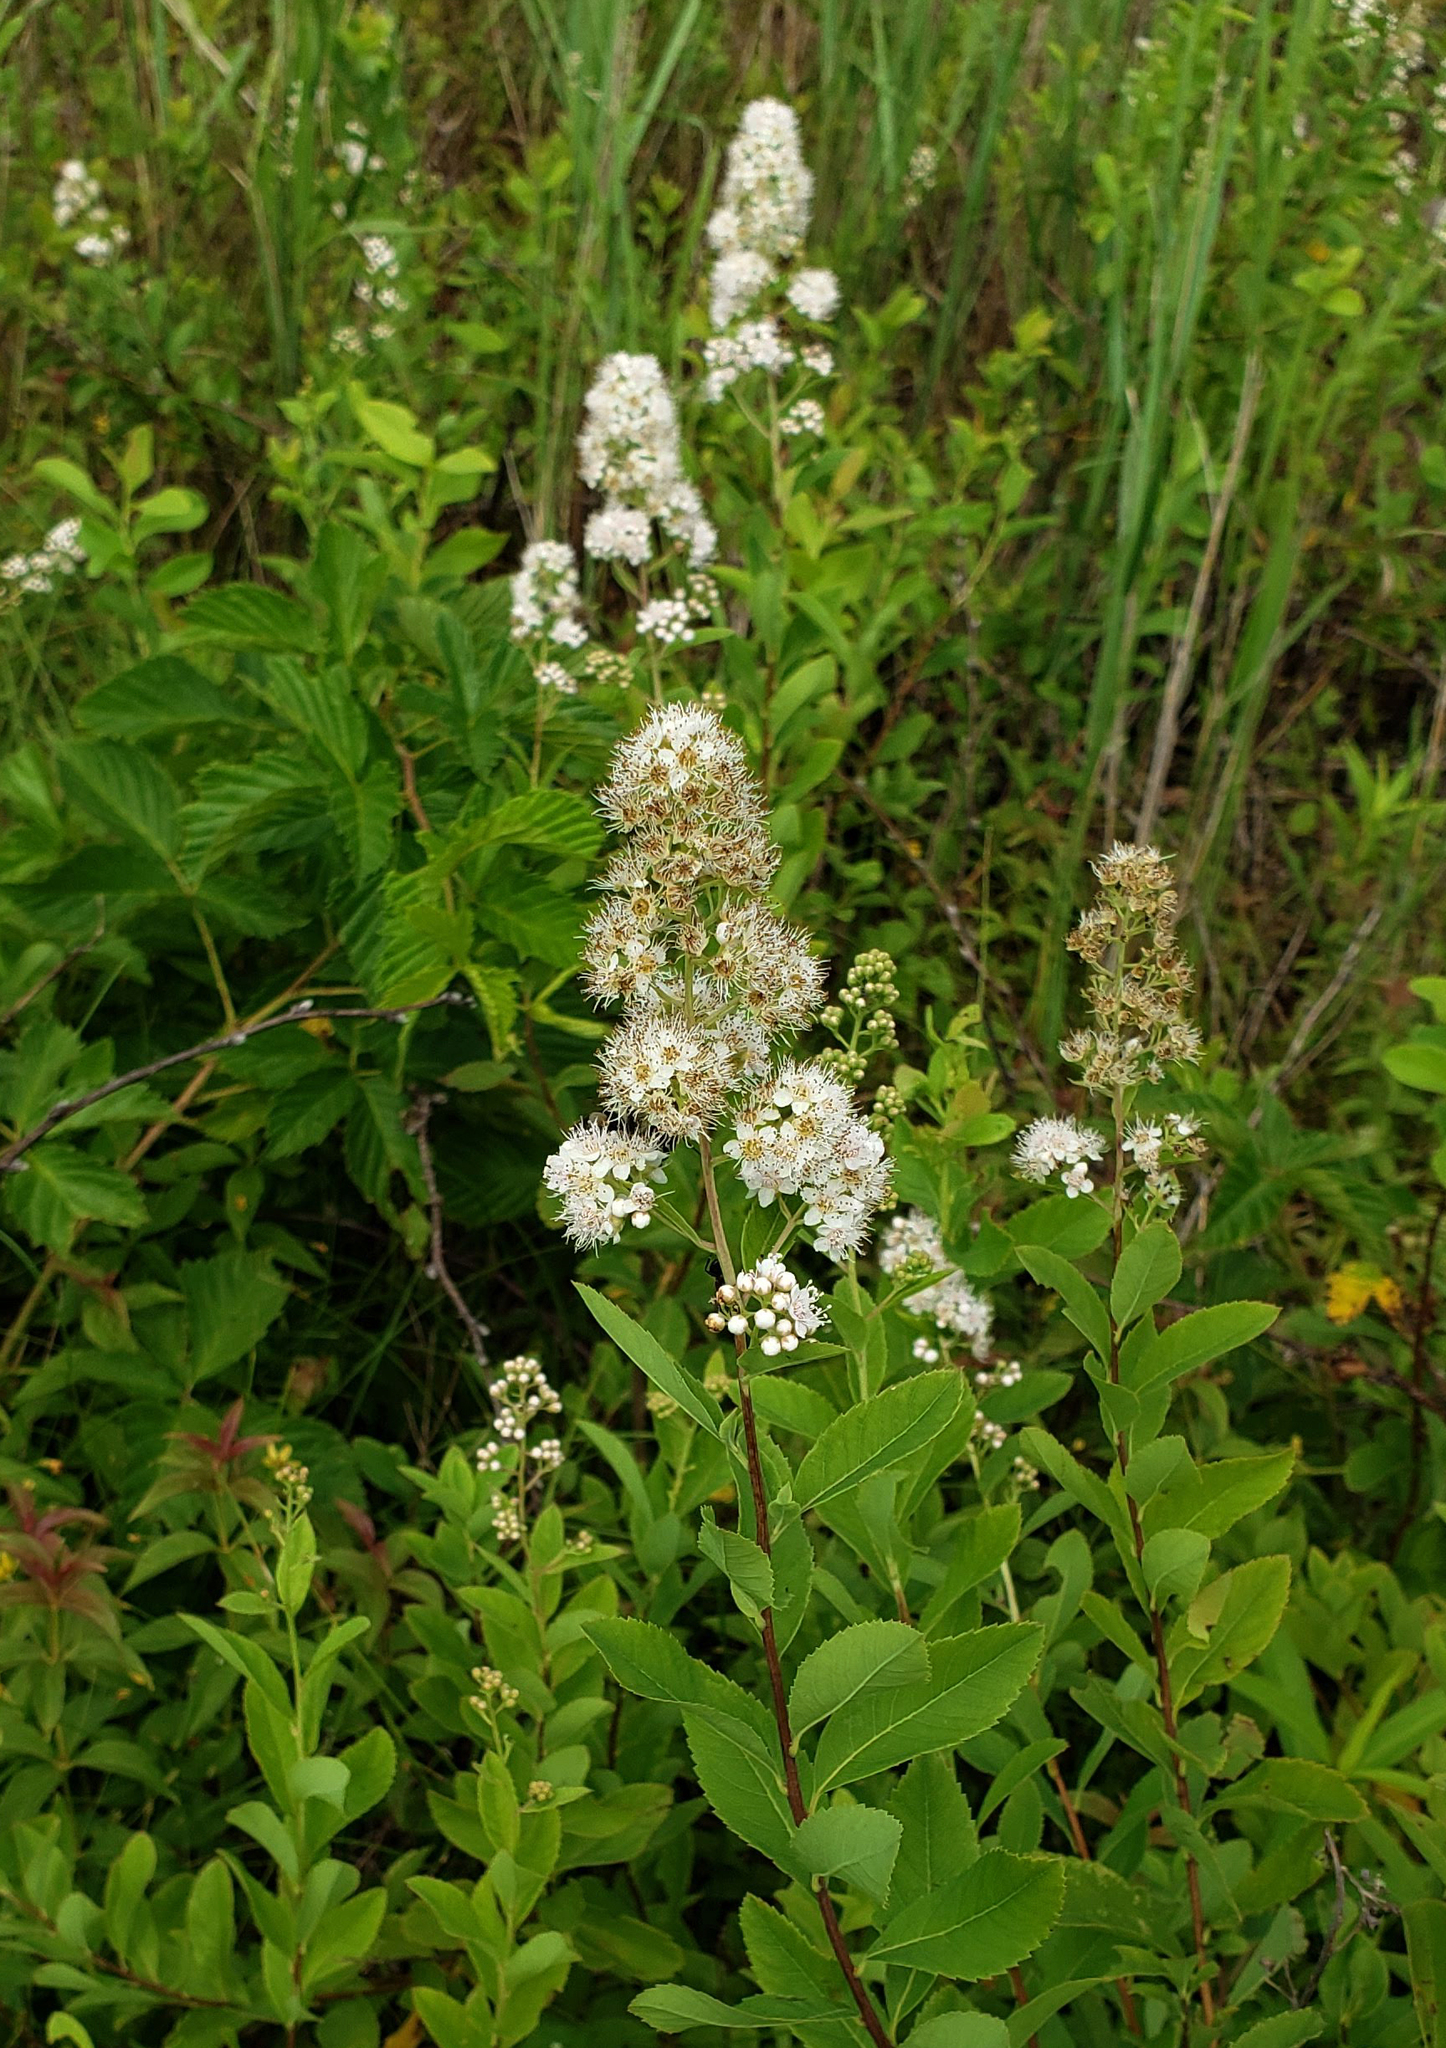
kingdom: Plantae
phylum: Tracheophyta
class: Magnoliopsida
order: Rosales
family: Rosaceae
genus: Spiraea
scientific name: Spiraea alba
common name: Pale bridewort
